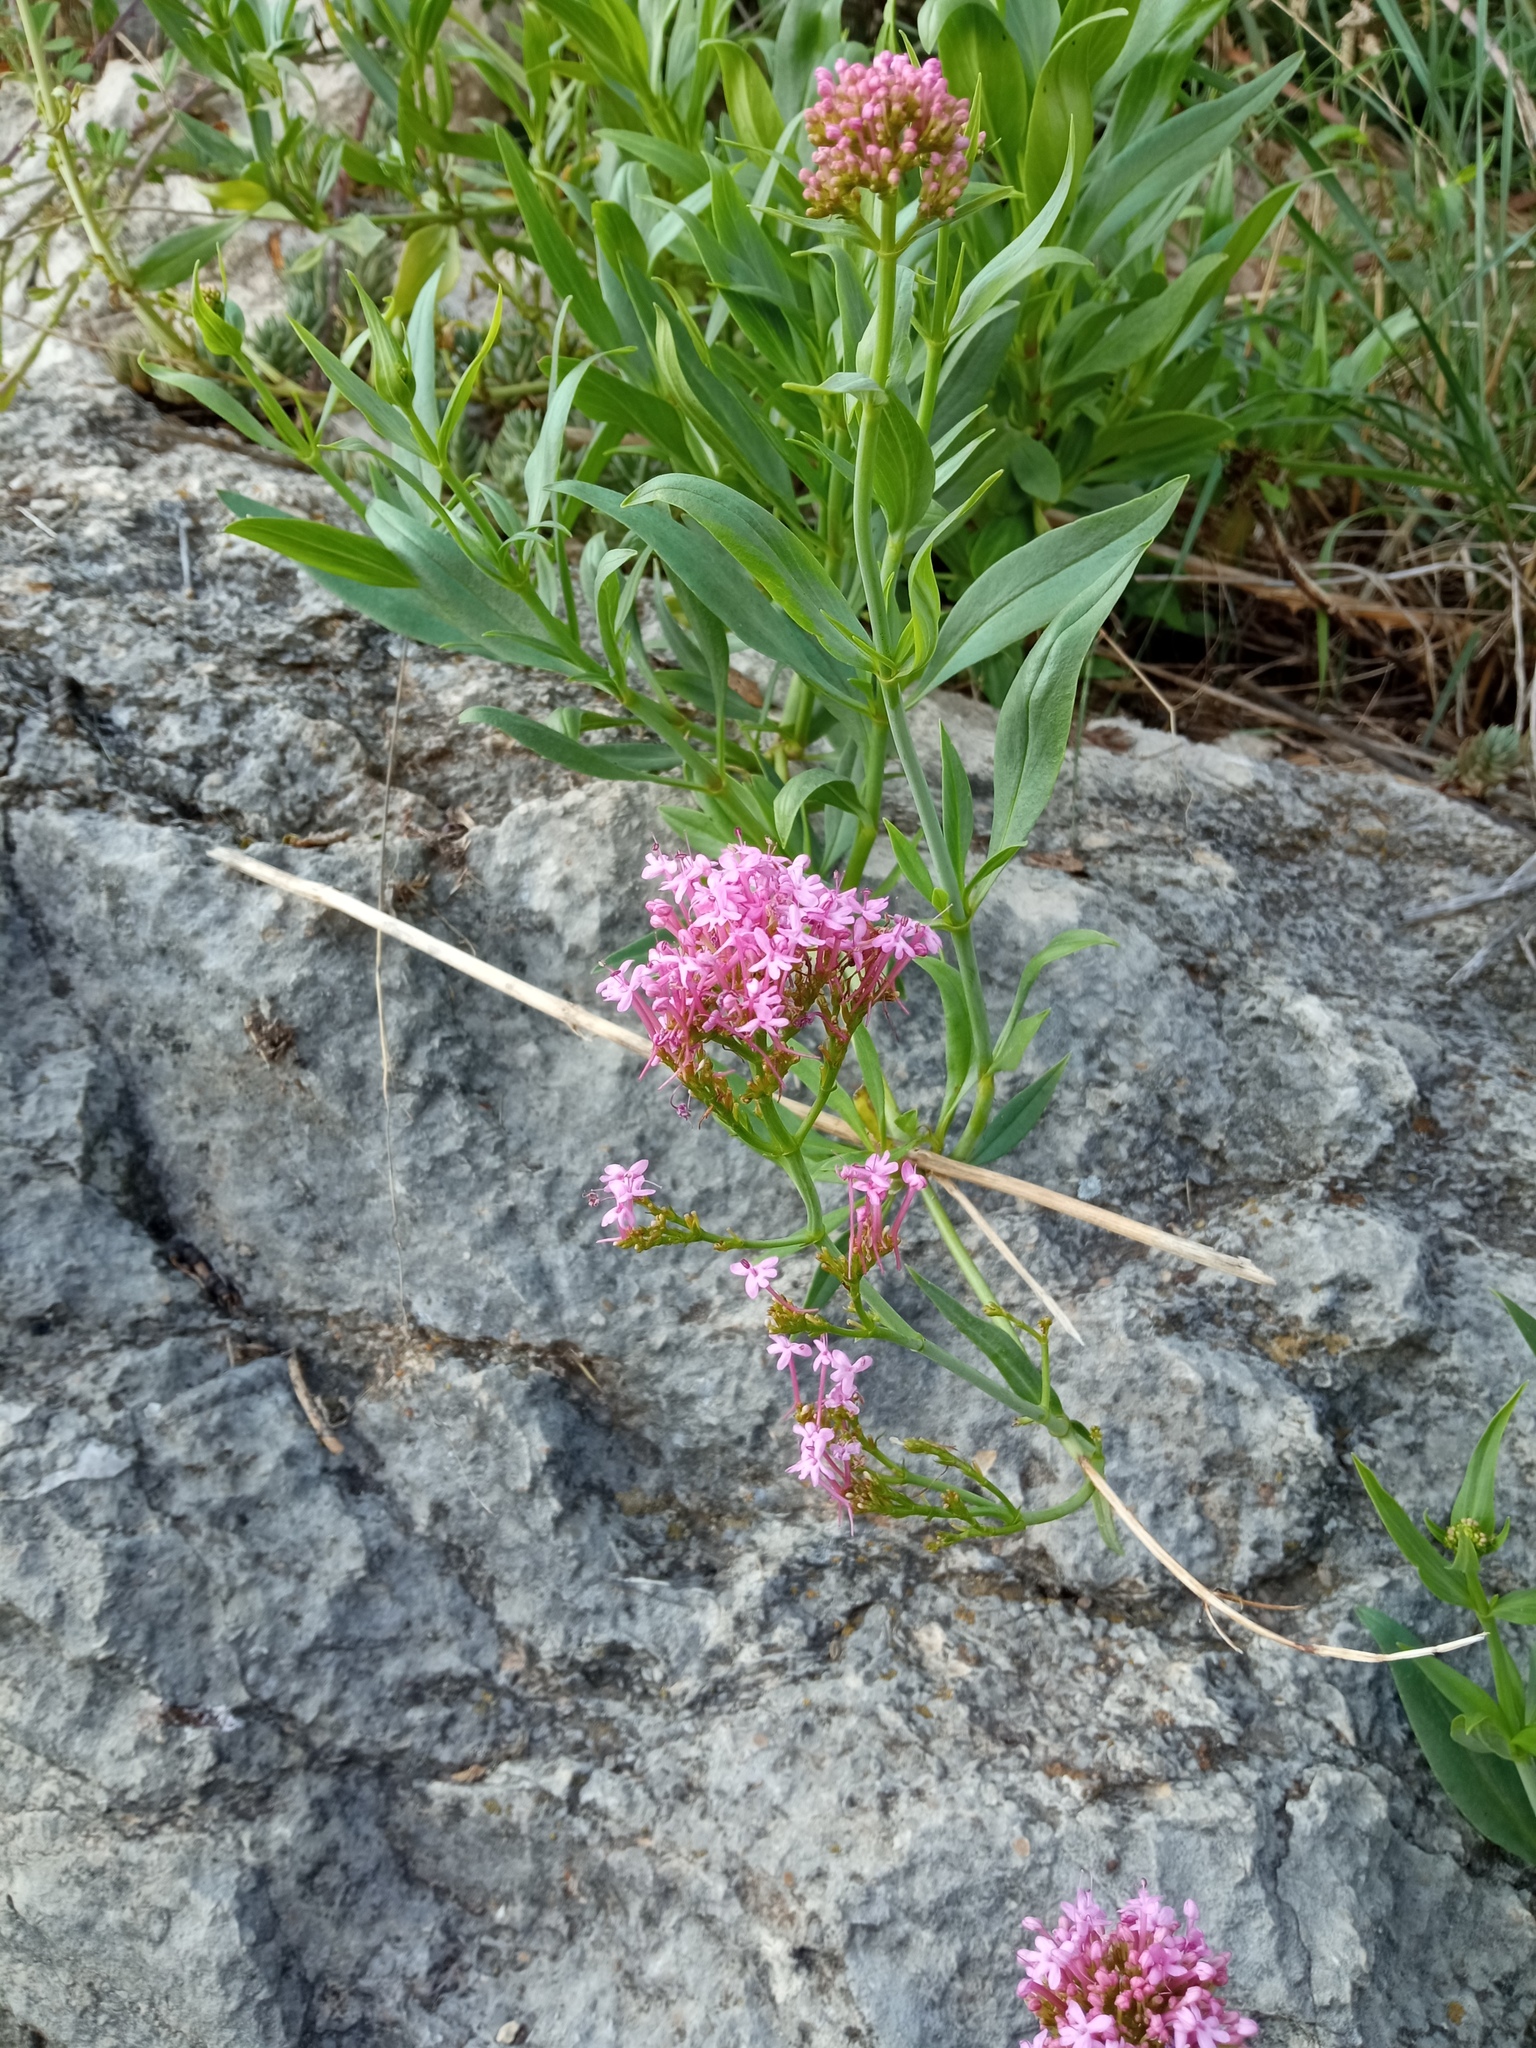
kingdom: Plantae
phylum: Tracheophyta
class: Magnoliopsida
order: Dipsacales
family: Caprifoliaceae
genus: Centranthus
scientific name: Centranthus ruber
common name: Red valerian
